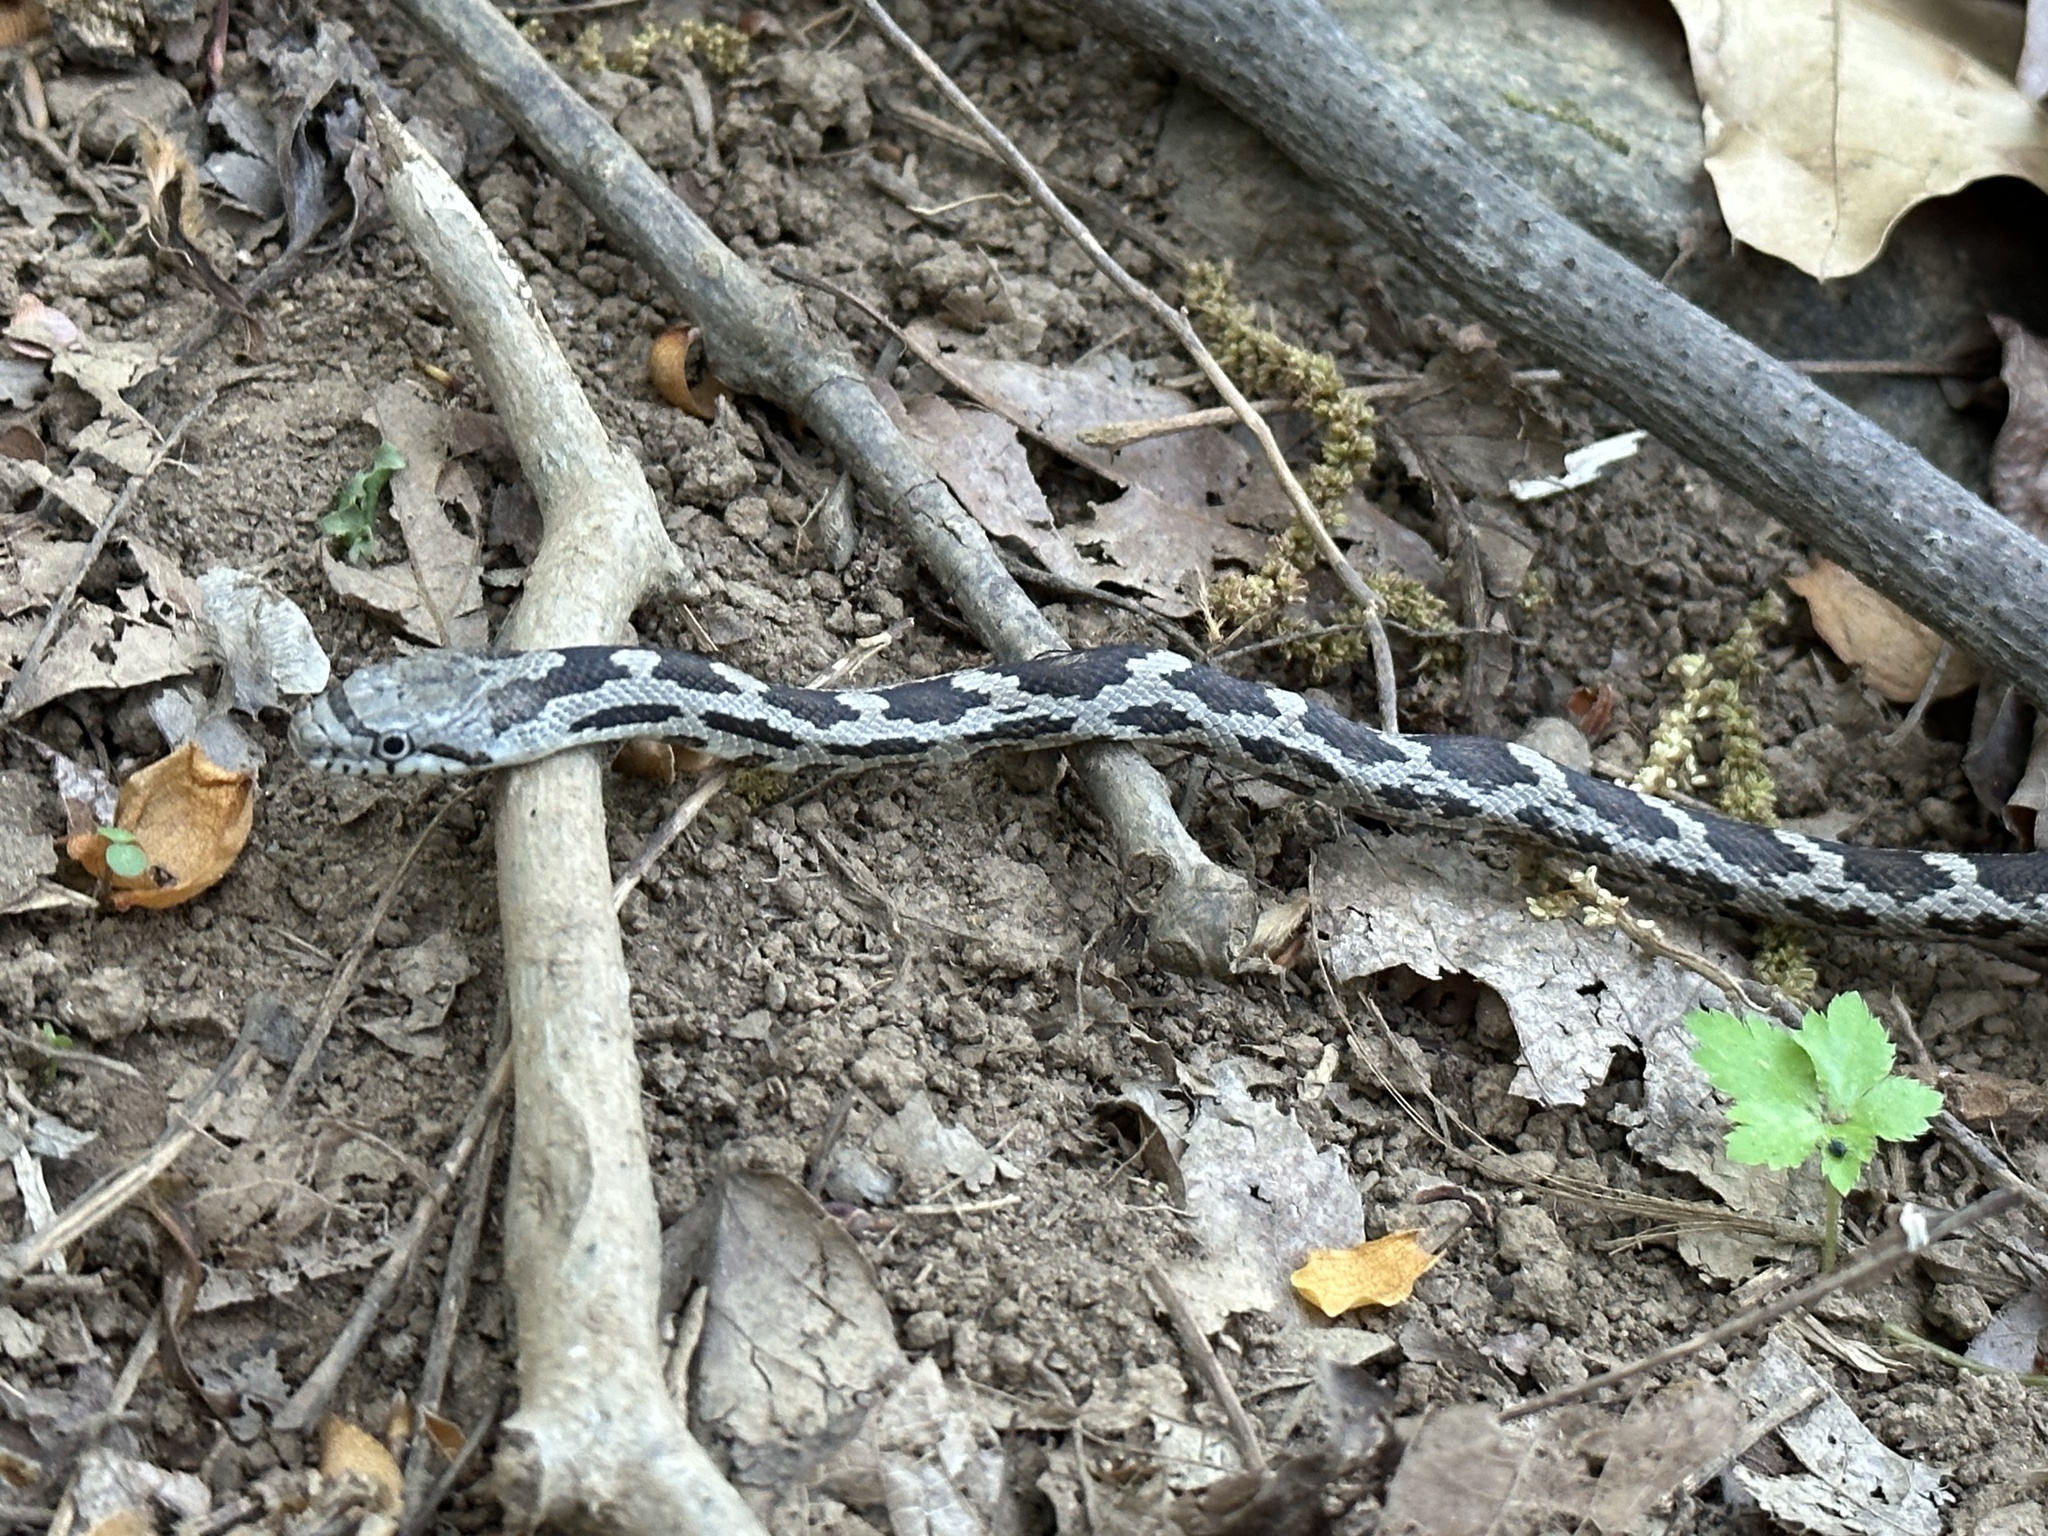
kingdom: Animalia
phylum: Chordata
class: Squamata
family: Colubridae
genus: Pantherophis
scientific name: Pantherophis
